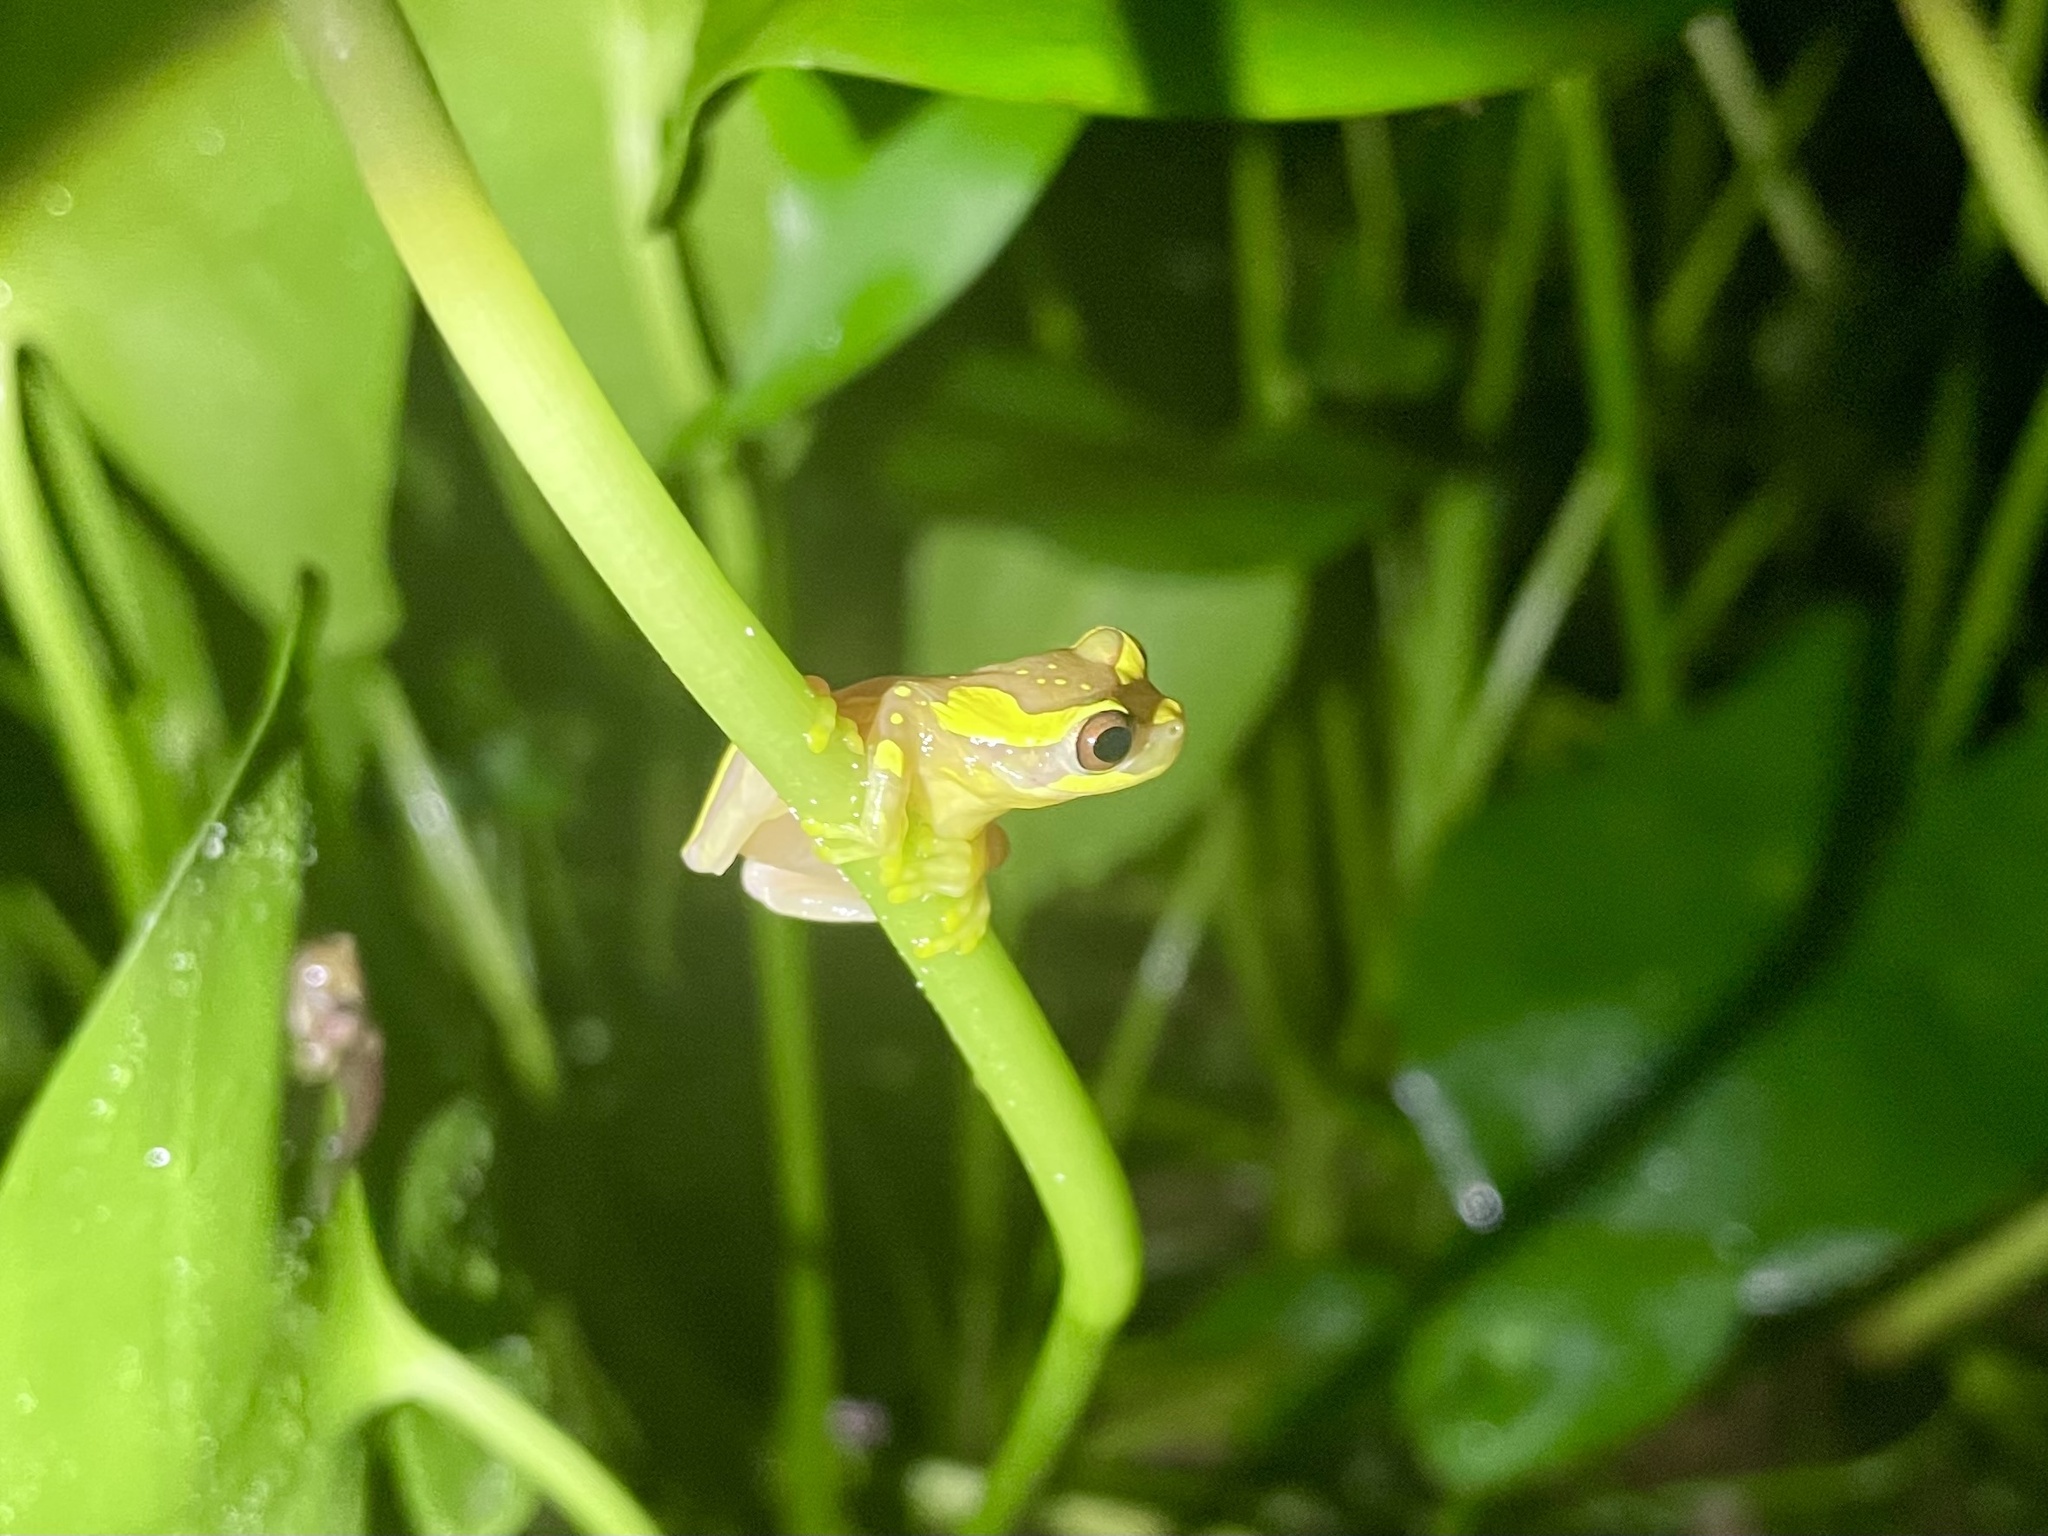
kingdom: Animalia
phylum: Chordata
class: Amphibia
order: Anura
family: Hylidae
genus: Dendropsophus
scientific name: Dendropsophus ebraccatus
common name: Hourglass treefrog
